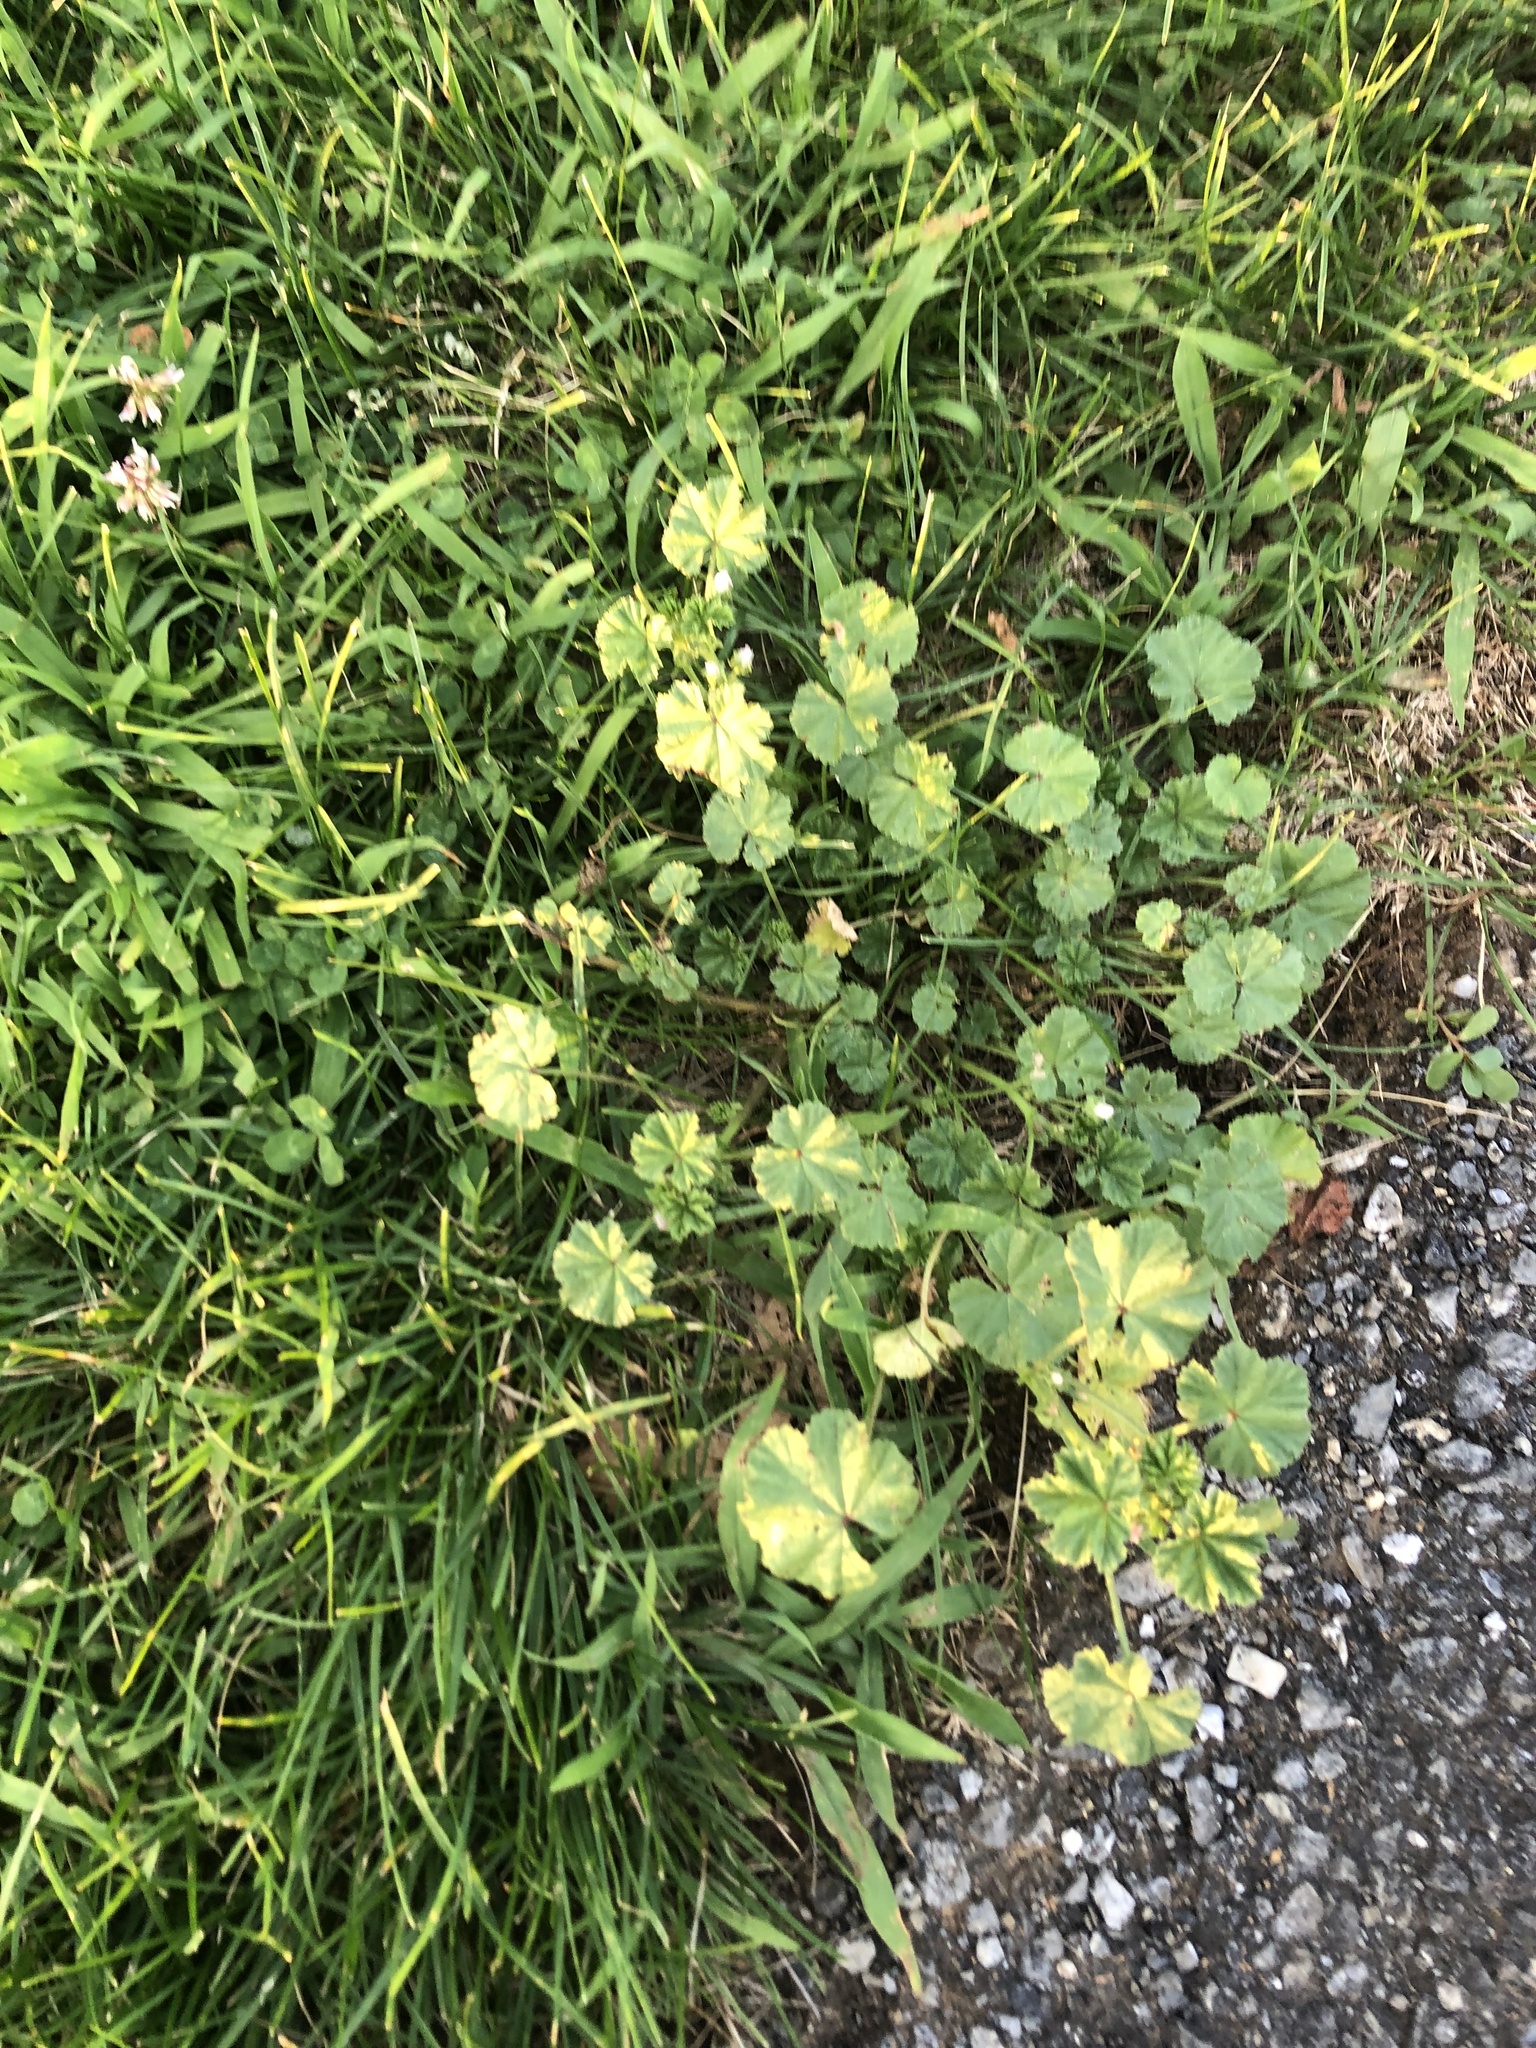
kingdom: Plantae
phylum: Tracheophyta
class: Magnoliopsida
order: Malvales
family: Malvaceae
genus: Malva
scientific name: Malva neglecta
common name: Common mallow
